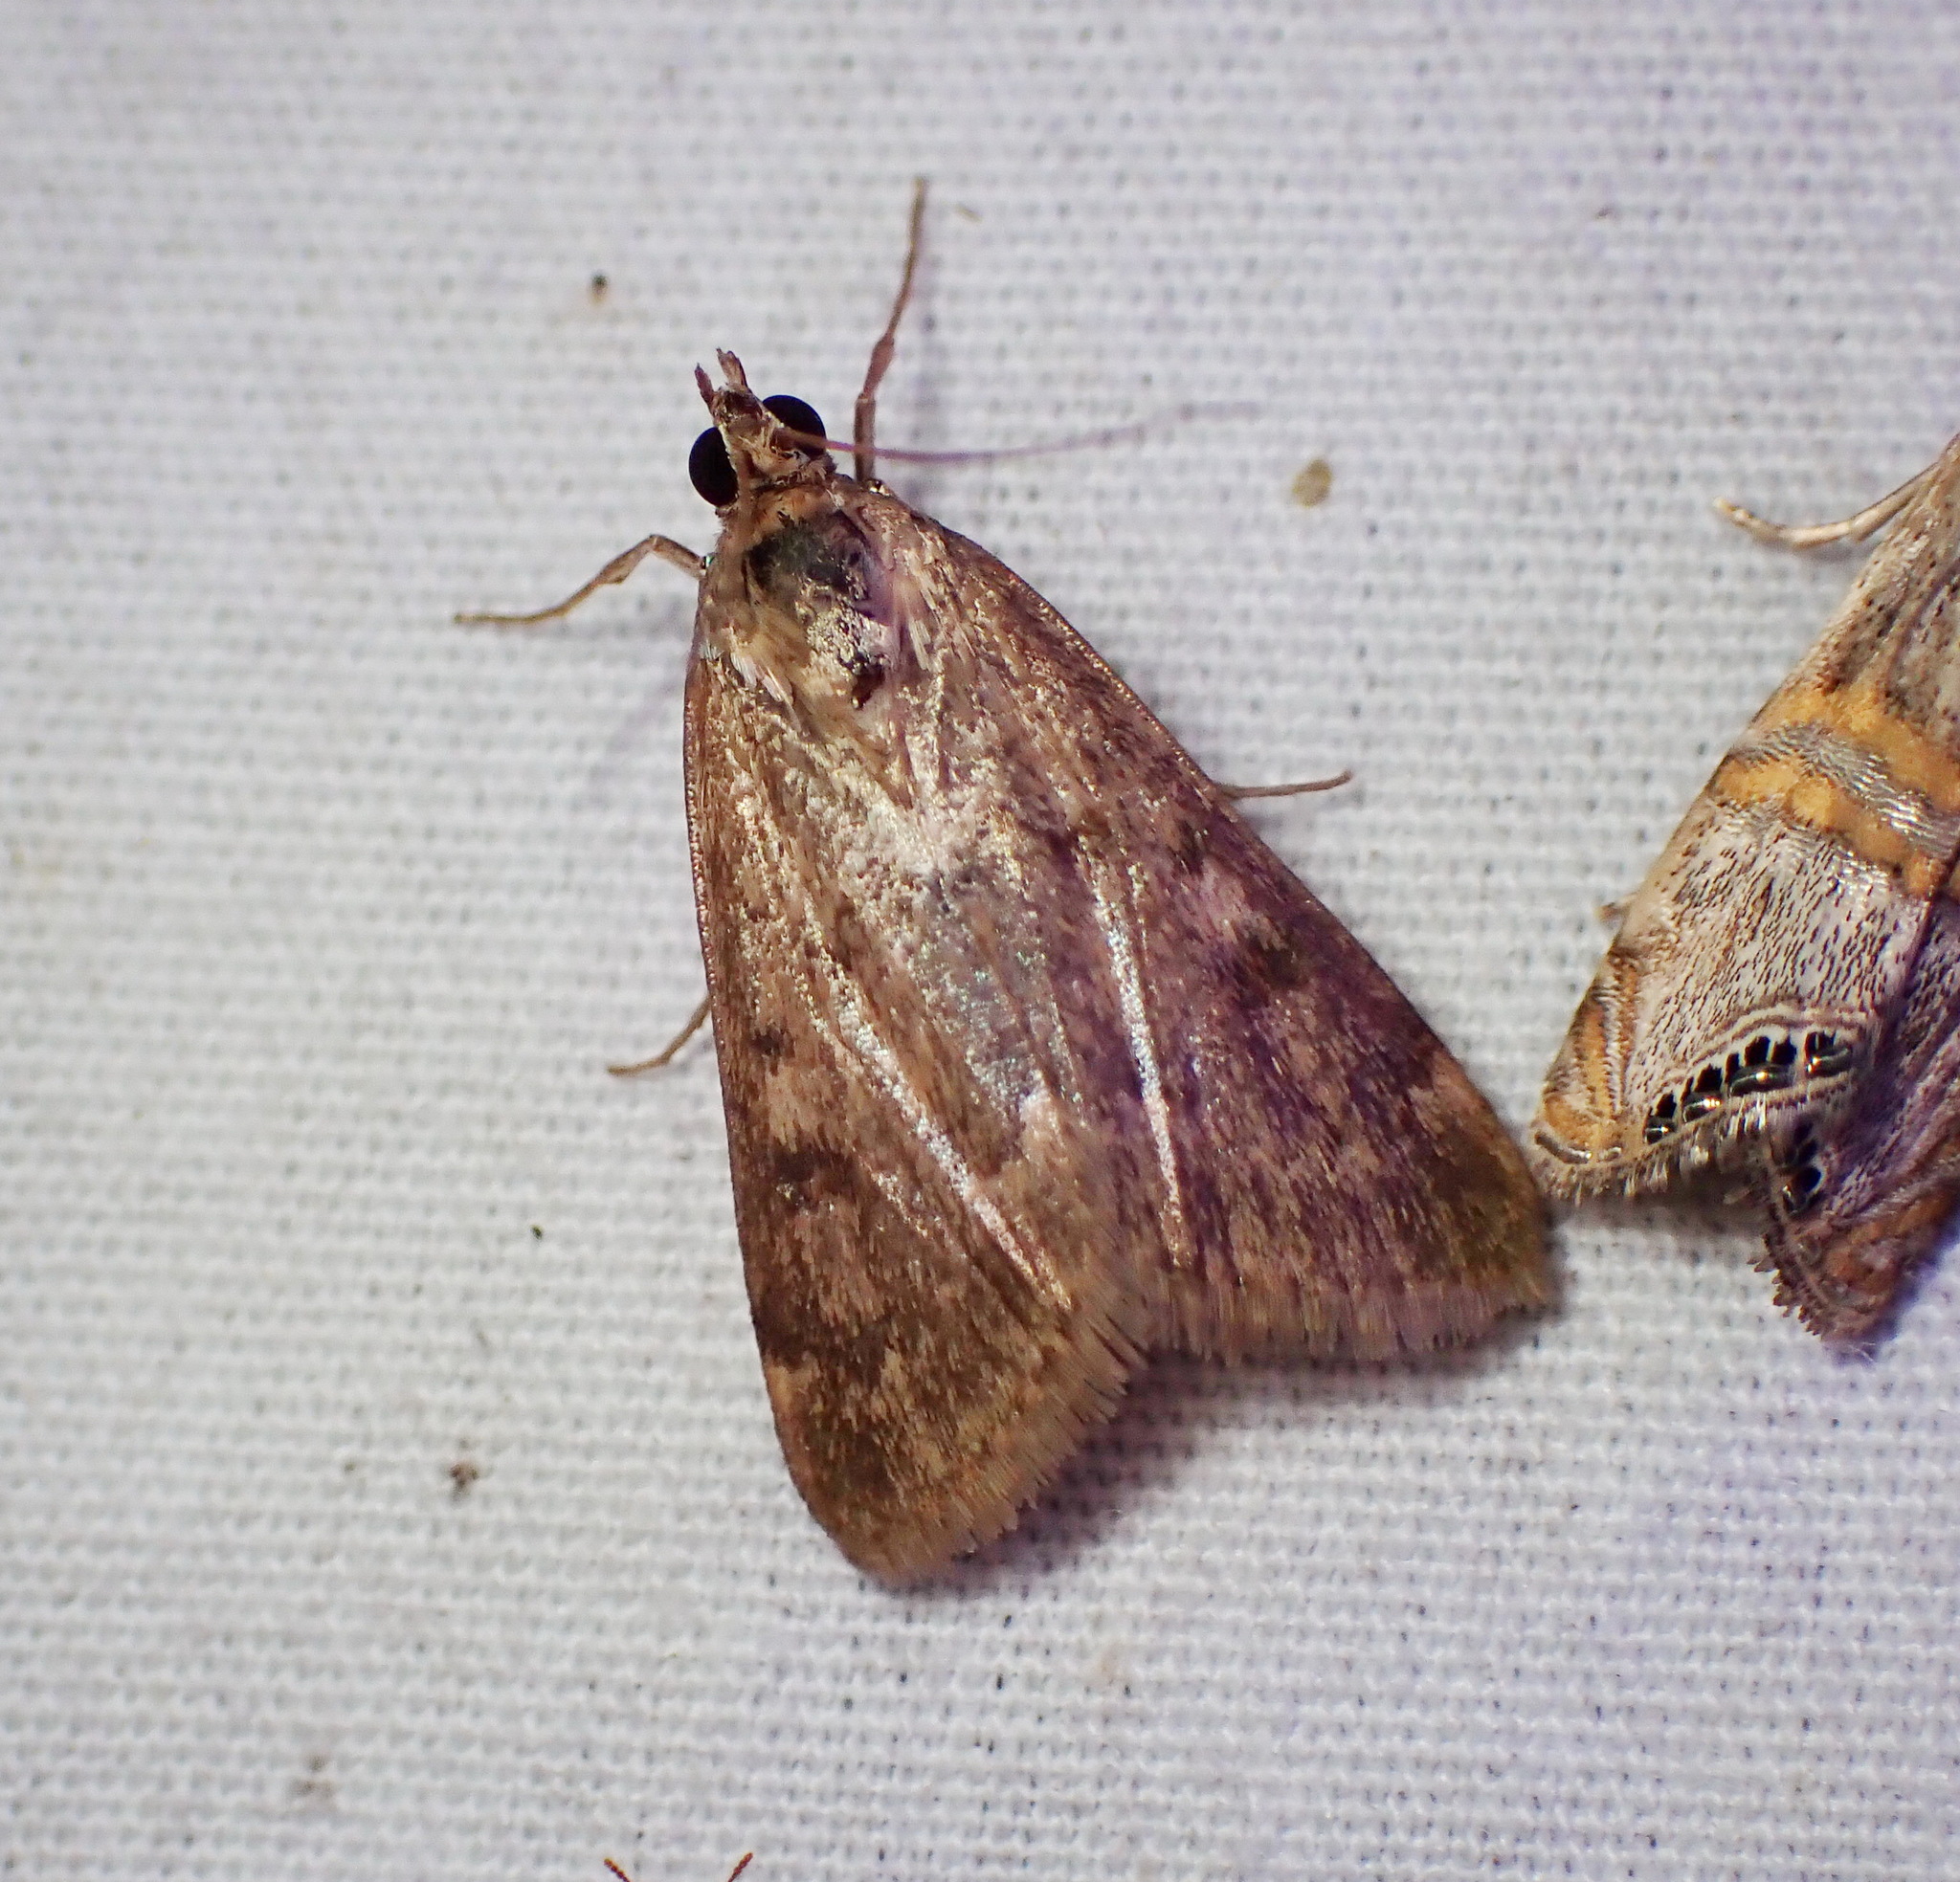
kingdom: Animalia
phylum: Arthropoda
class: Insecta
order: Lepidoptera
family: Crambidae
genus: Achyra
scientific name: Achyra rantalis
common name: Garden webworm
